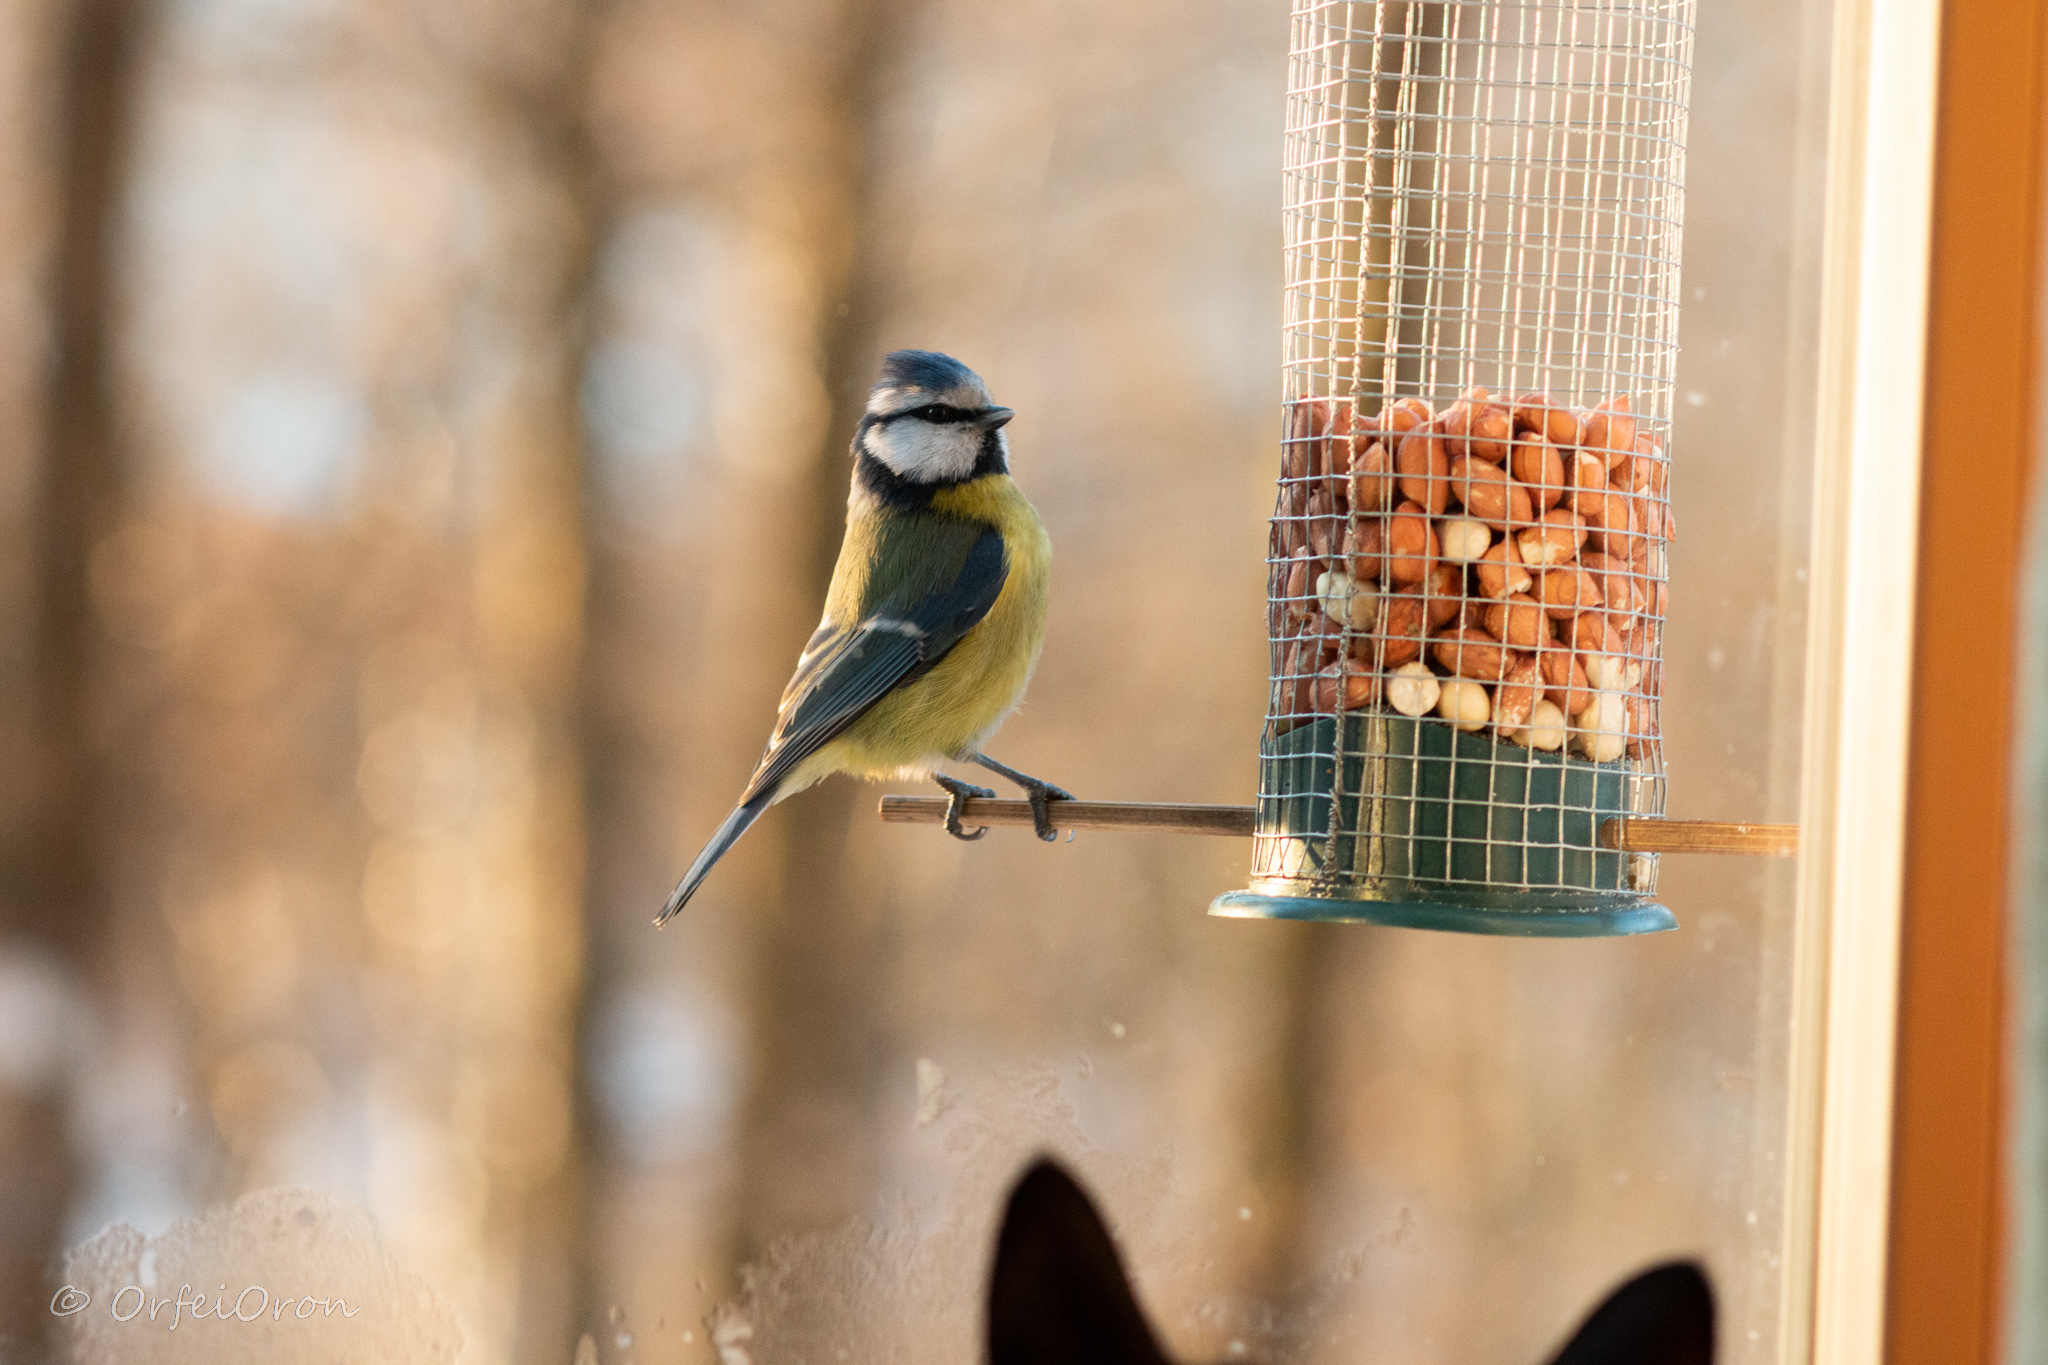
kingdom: Animalia
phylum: Chordata
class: Aves
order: Passeriformes
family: Paridae
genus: Cyanistes
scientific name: Cyanistes caeruleus
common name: Eurasian blue tit
